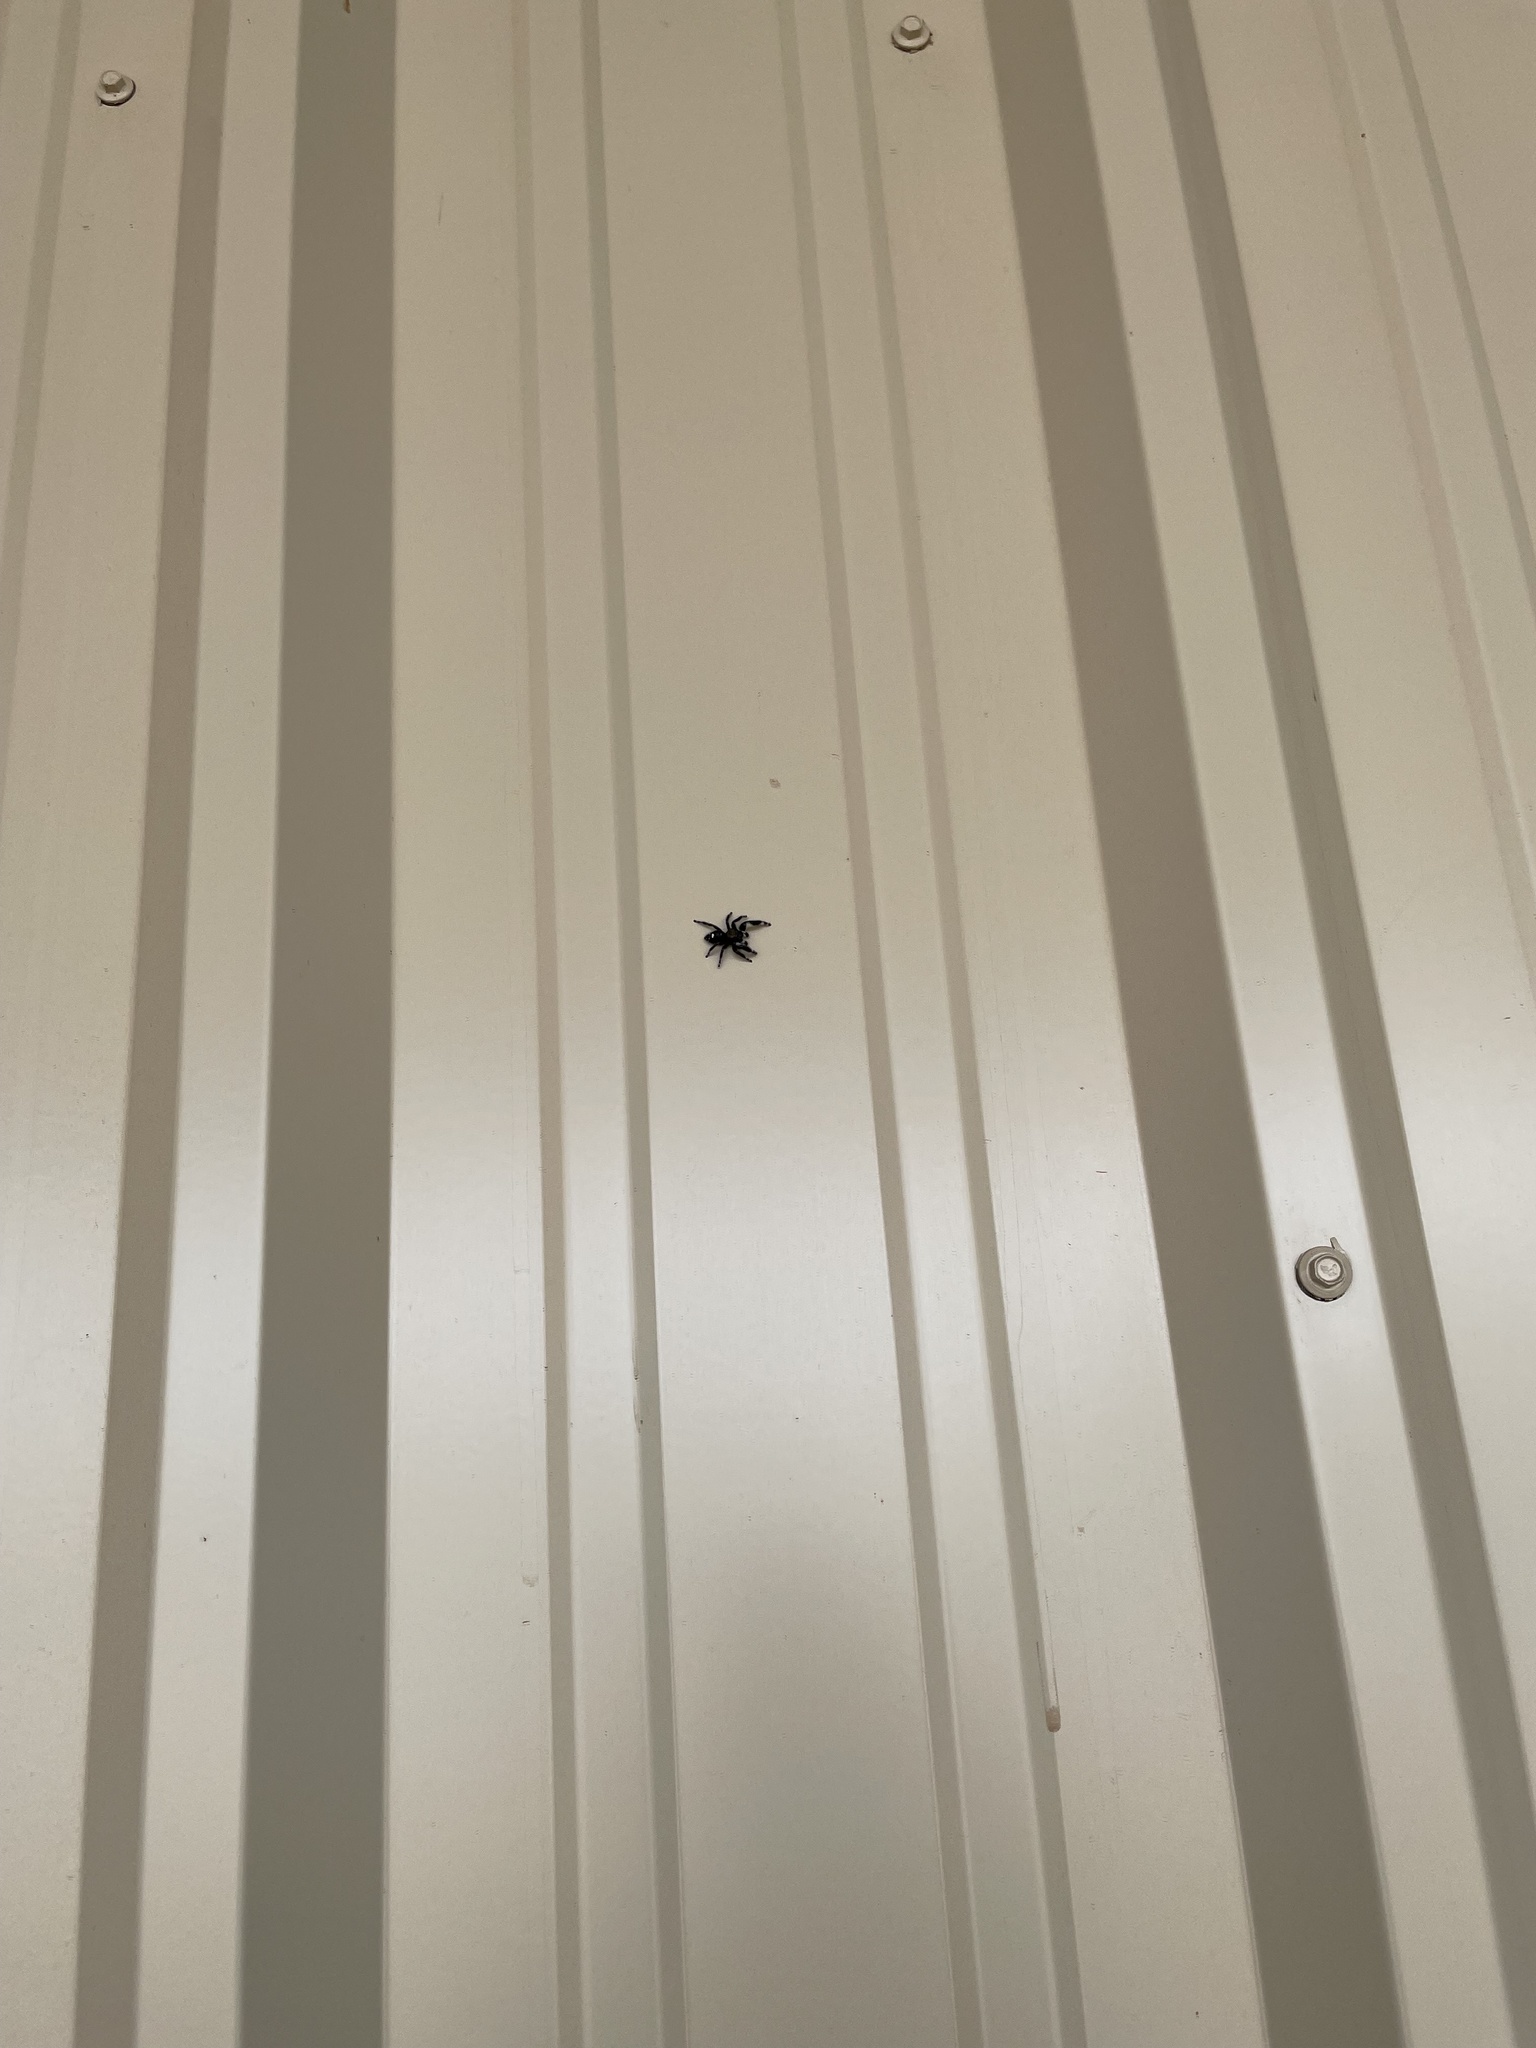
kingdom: Animalia
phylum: Arthropoda
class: Arachnida
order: Araneae
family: Salticidae
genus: Phidippus
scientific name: Phidippus audax
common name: Bold jumper
